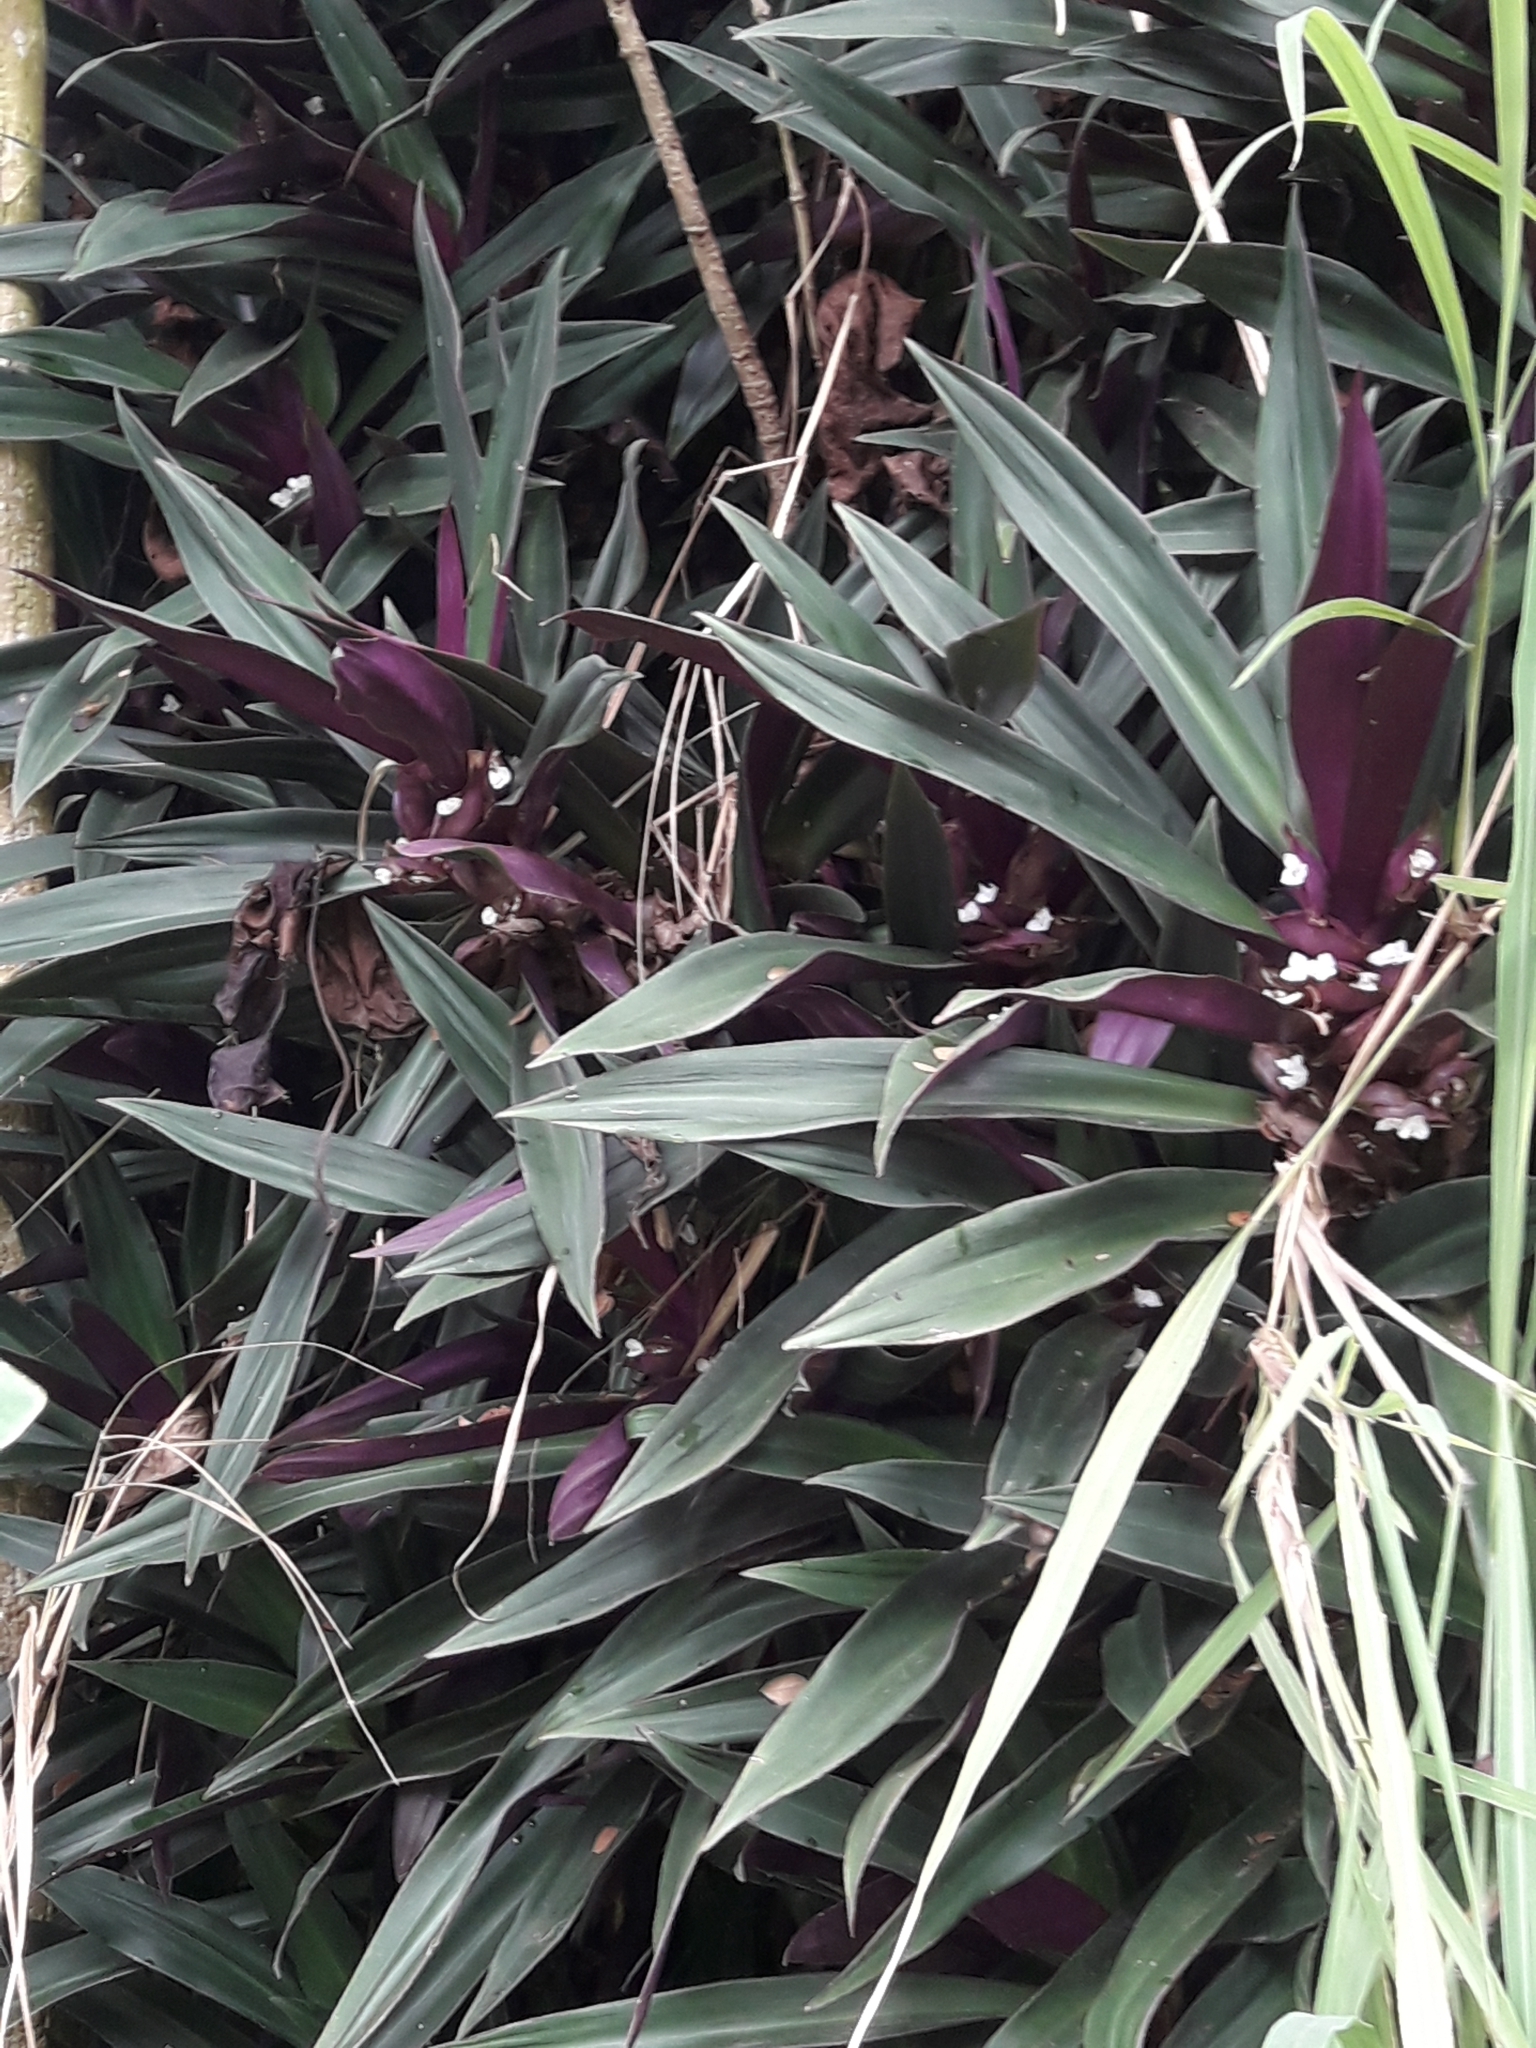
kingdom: Plantae
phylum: Tracheophyta
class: Liliopsida
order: Commelinales
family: Commelinaceae
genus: Tradescantia
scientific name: Tradescantia spathacea
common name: Boatlily
